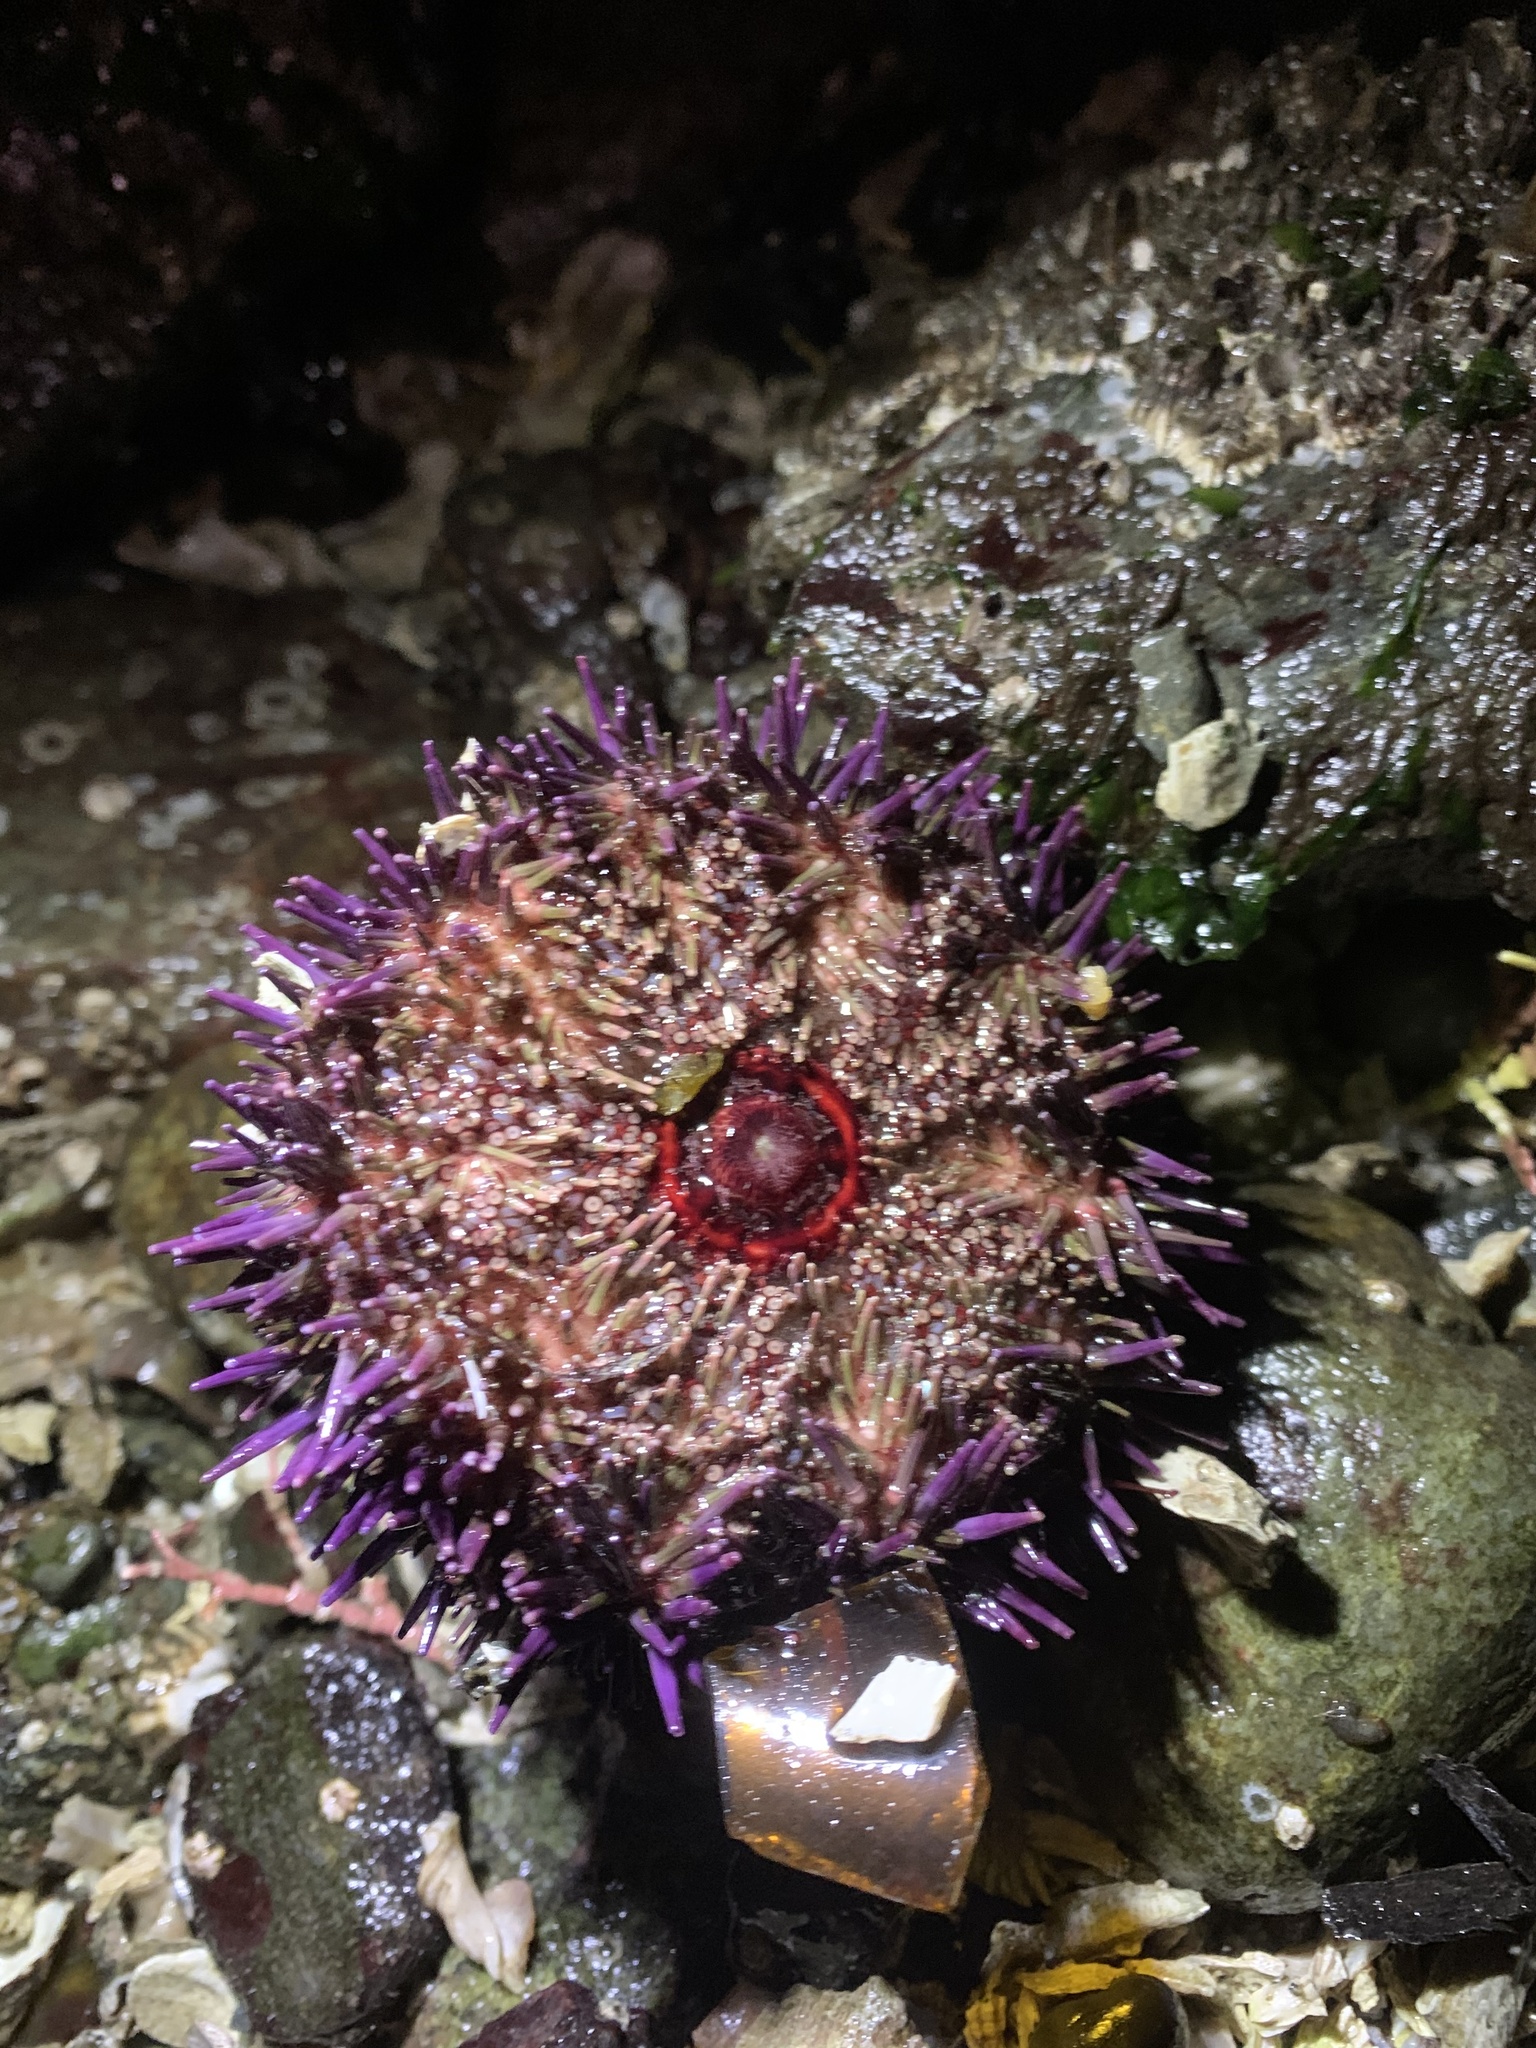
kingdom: Animalia
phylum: Echinodermata
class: Echinoidea
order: Camarodonta
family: Strongylocentrotidae
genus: Strongylocentrotus
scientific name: Strongylocentrotus purpuratus
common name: Purple sea urchin
